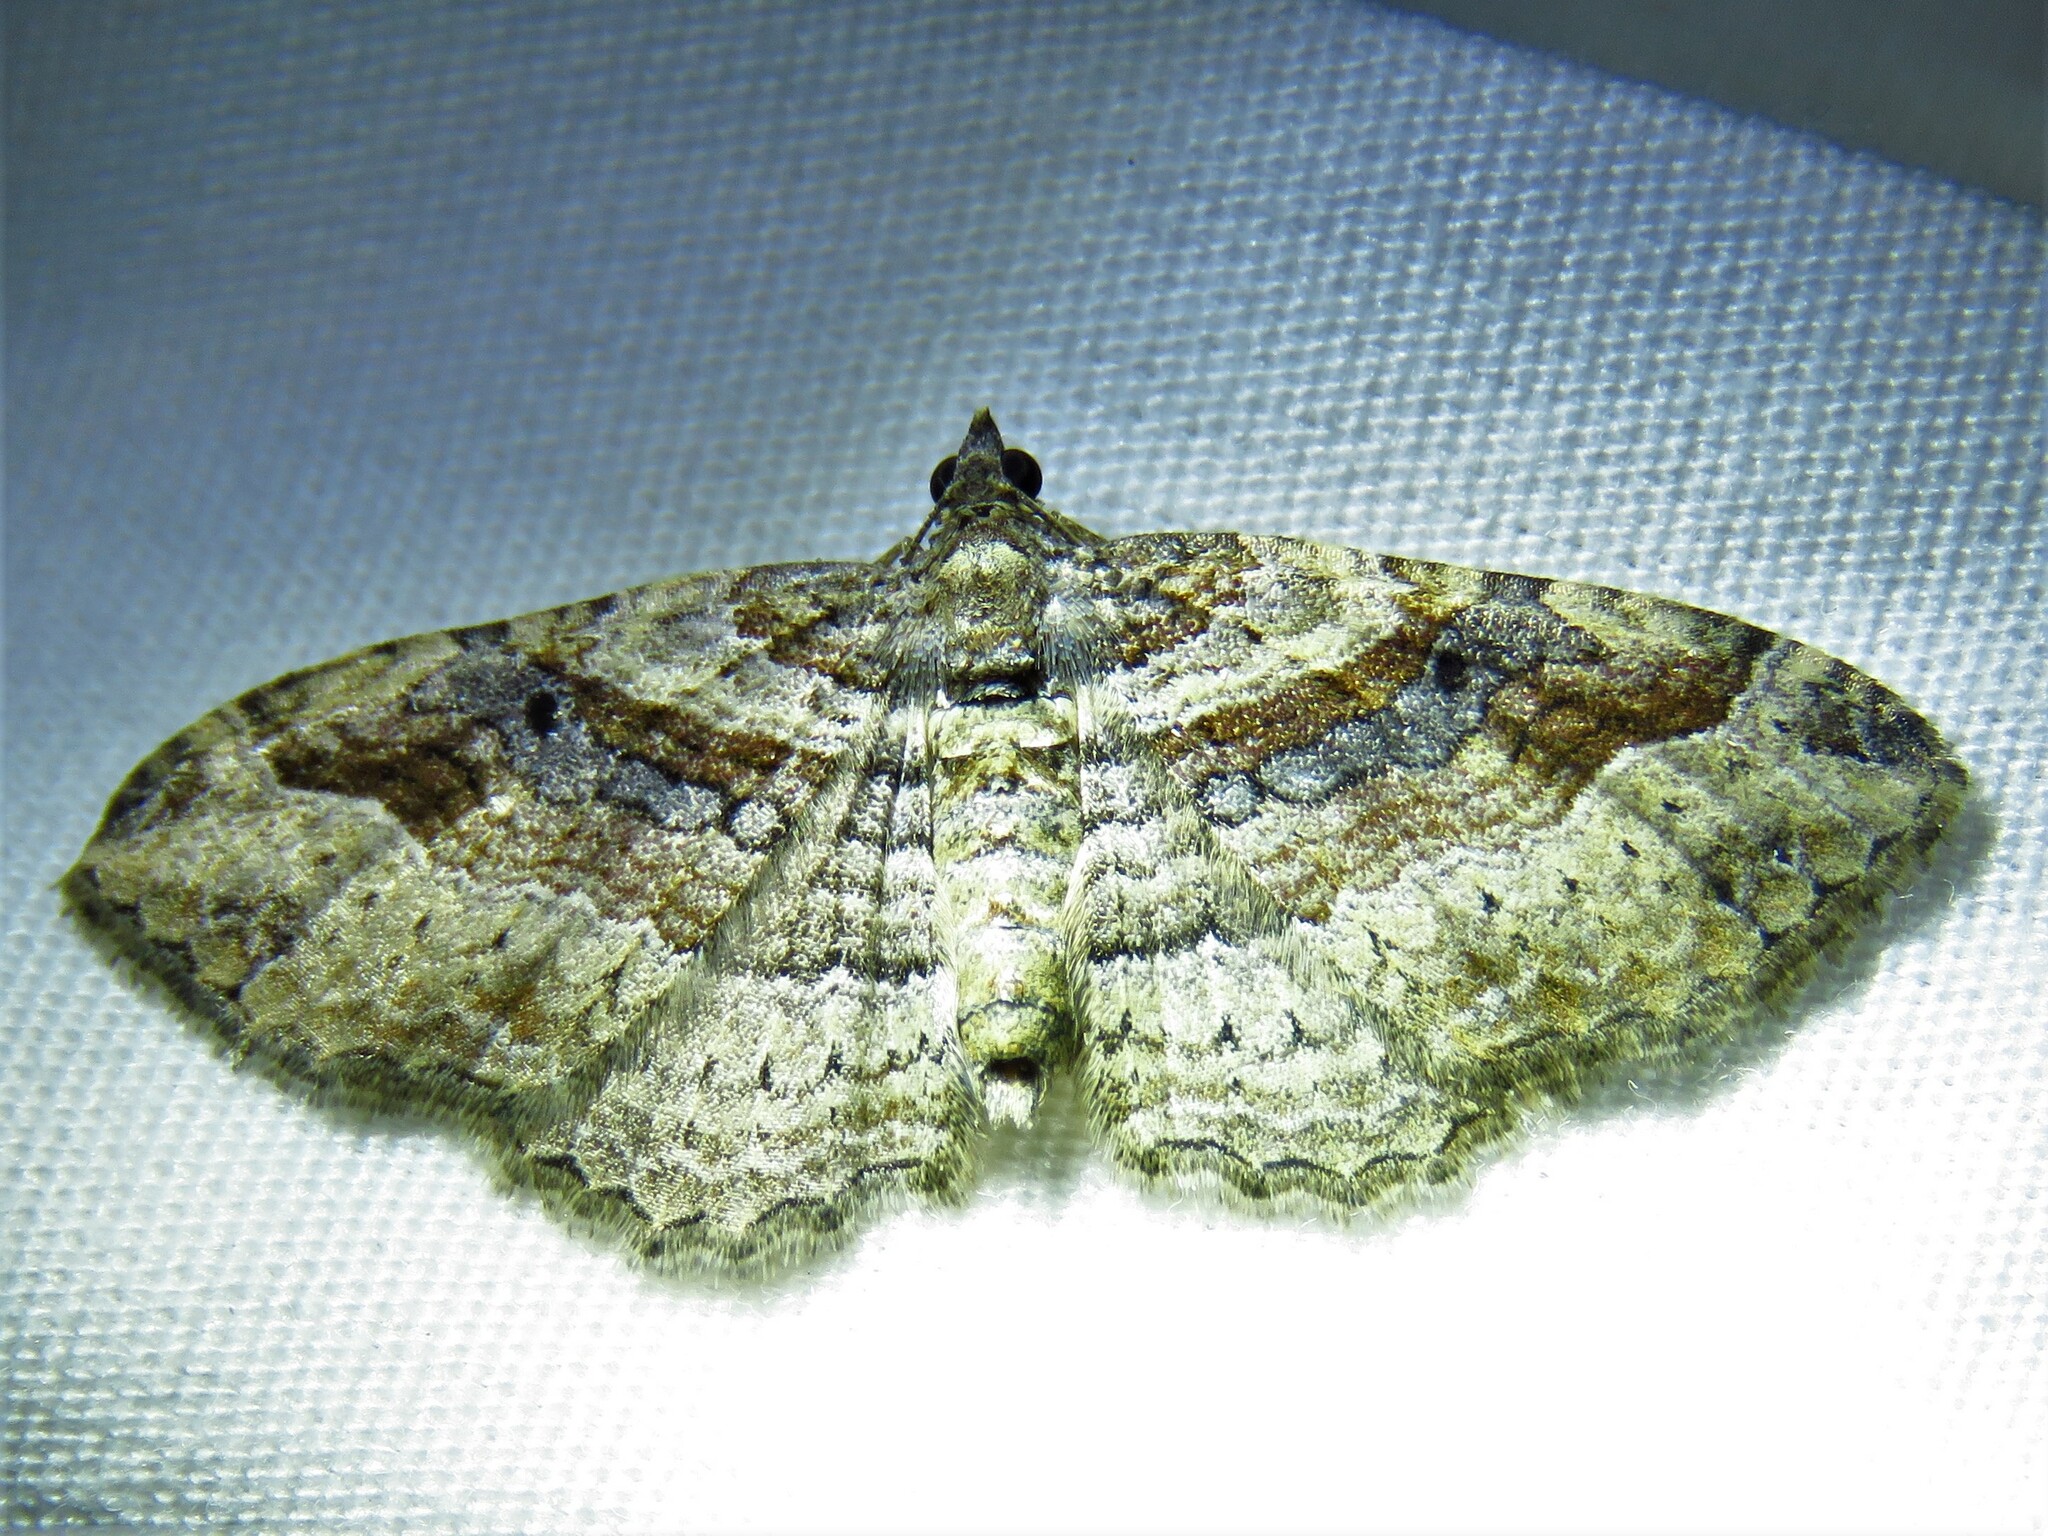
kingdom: Animalia
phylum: Arthropoda
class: Insecta
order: Lepidoptera
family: Geometridae
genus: Costaconvexa
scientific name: Costaconvexa centrostrigaria
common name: Bent-line carpet
